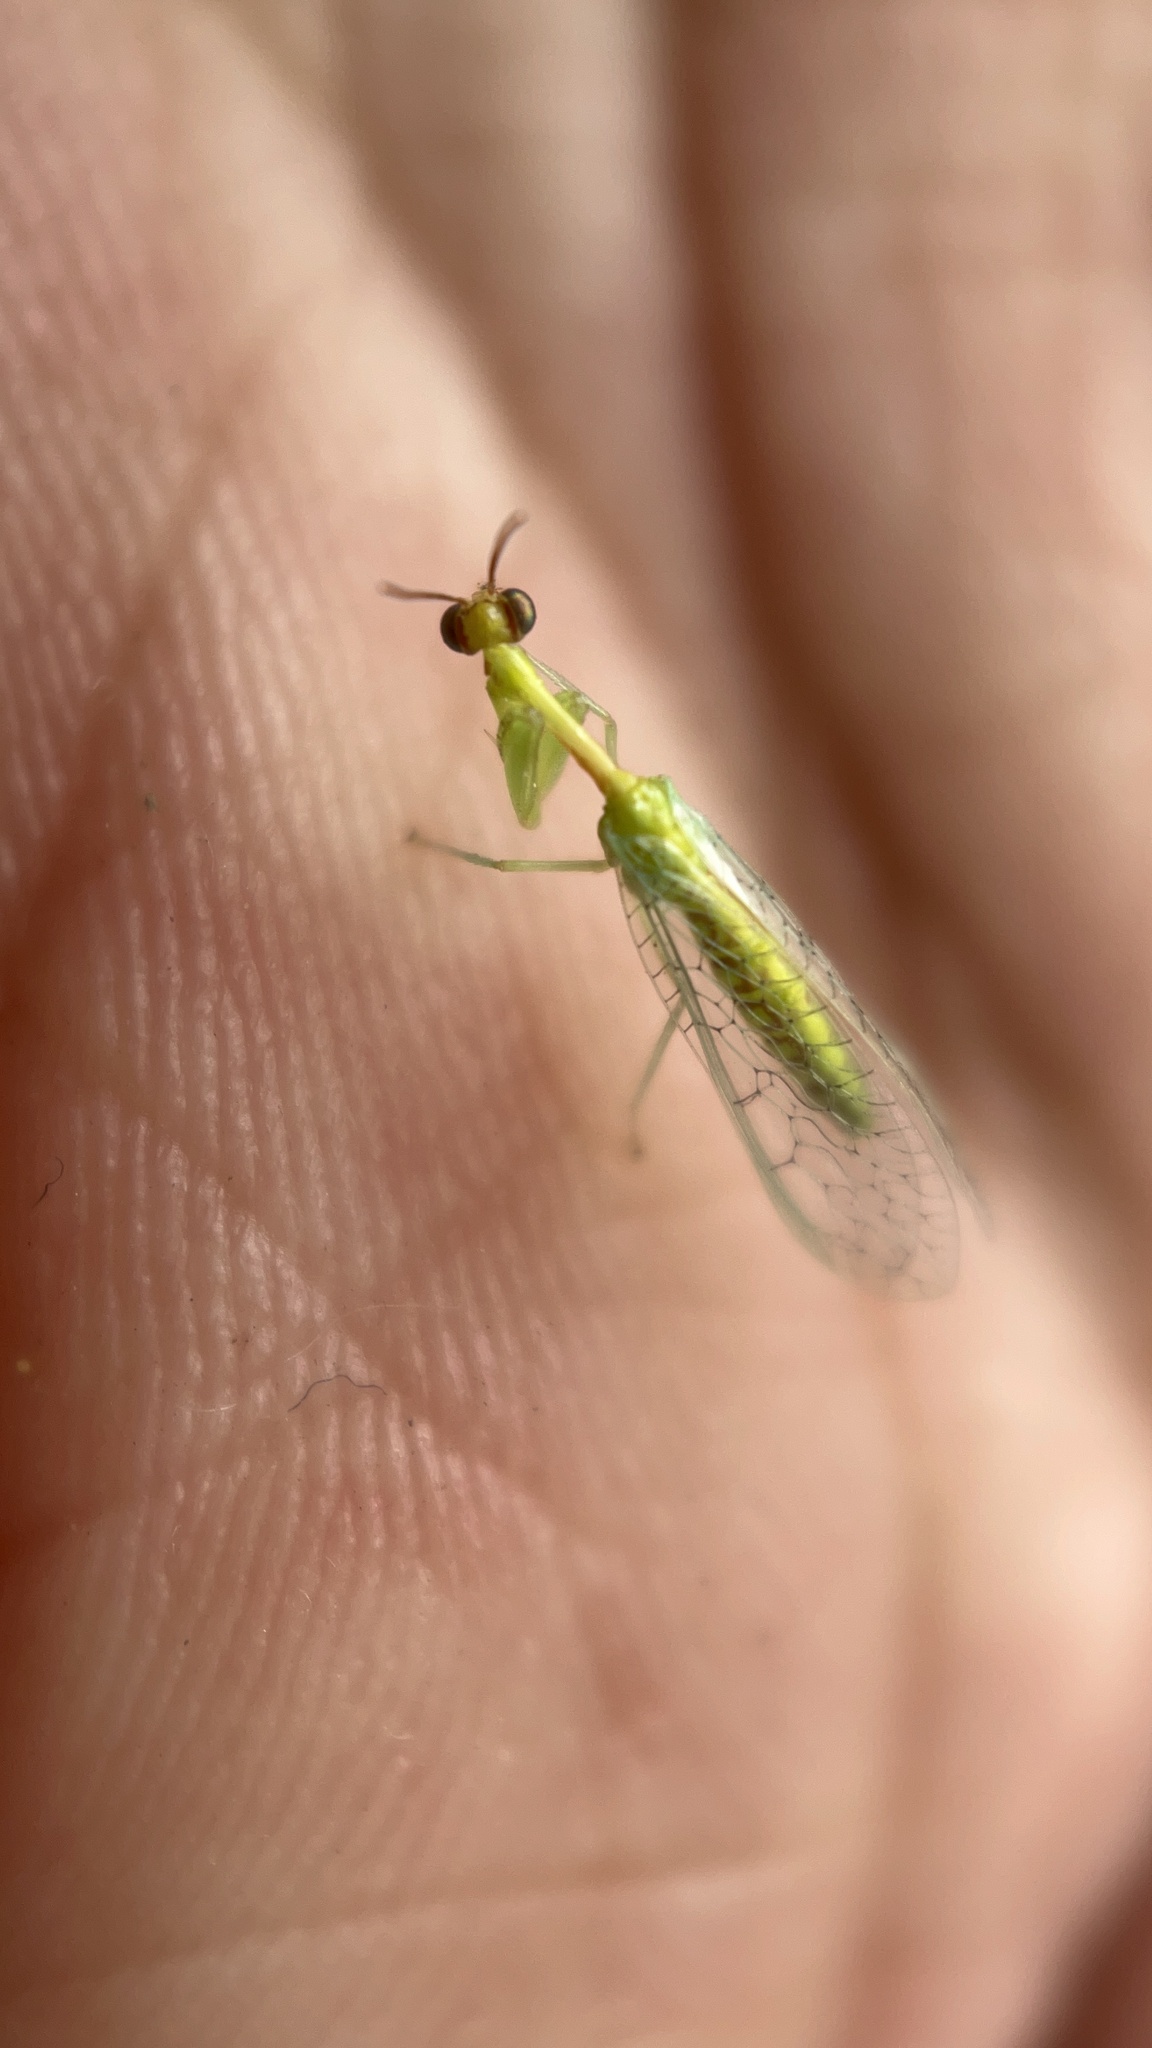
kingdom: Animalia
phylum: Arthropoda
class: Insecta
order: Neuroptera
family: Mantispidae
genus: Zeugomantispa
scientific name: Zeugomantispa minuta
